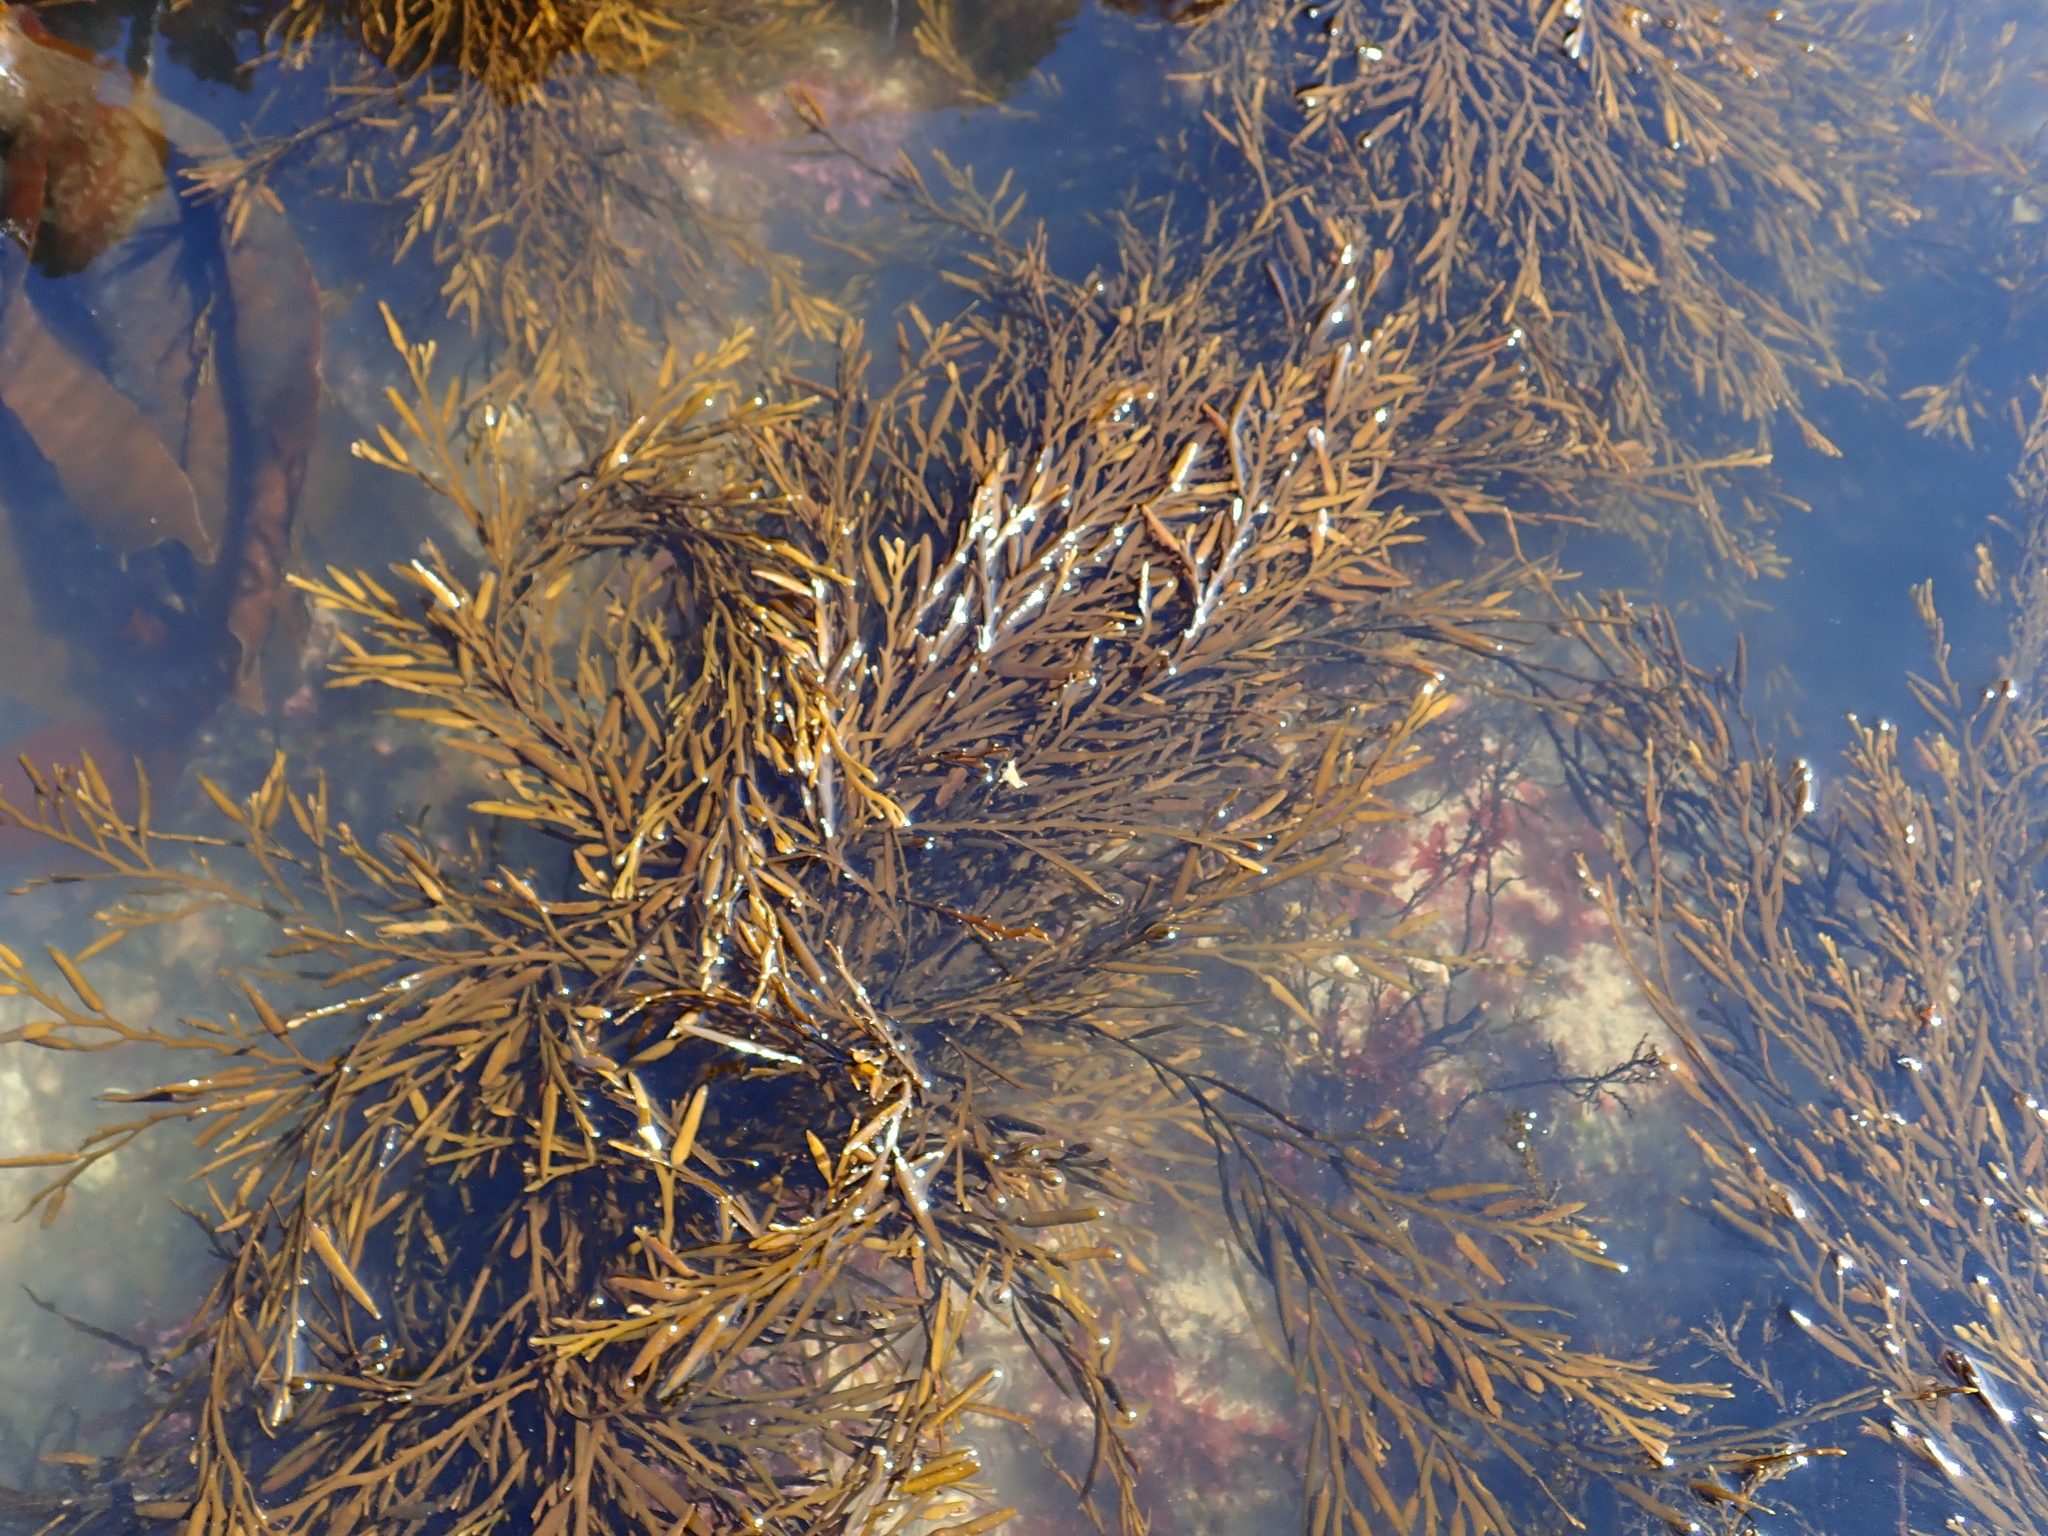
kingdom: Chromista
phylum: Ochrophyta
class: Phaeophyceae
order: Fucales
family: Sargassaceae
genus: Halidrys
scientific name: Halidrys siliquosa
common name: Sea oak
